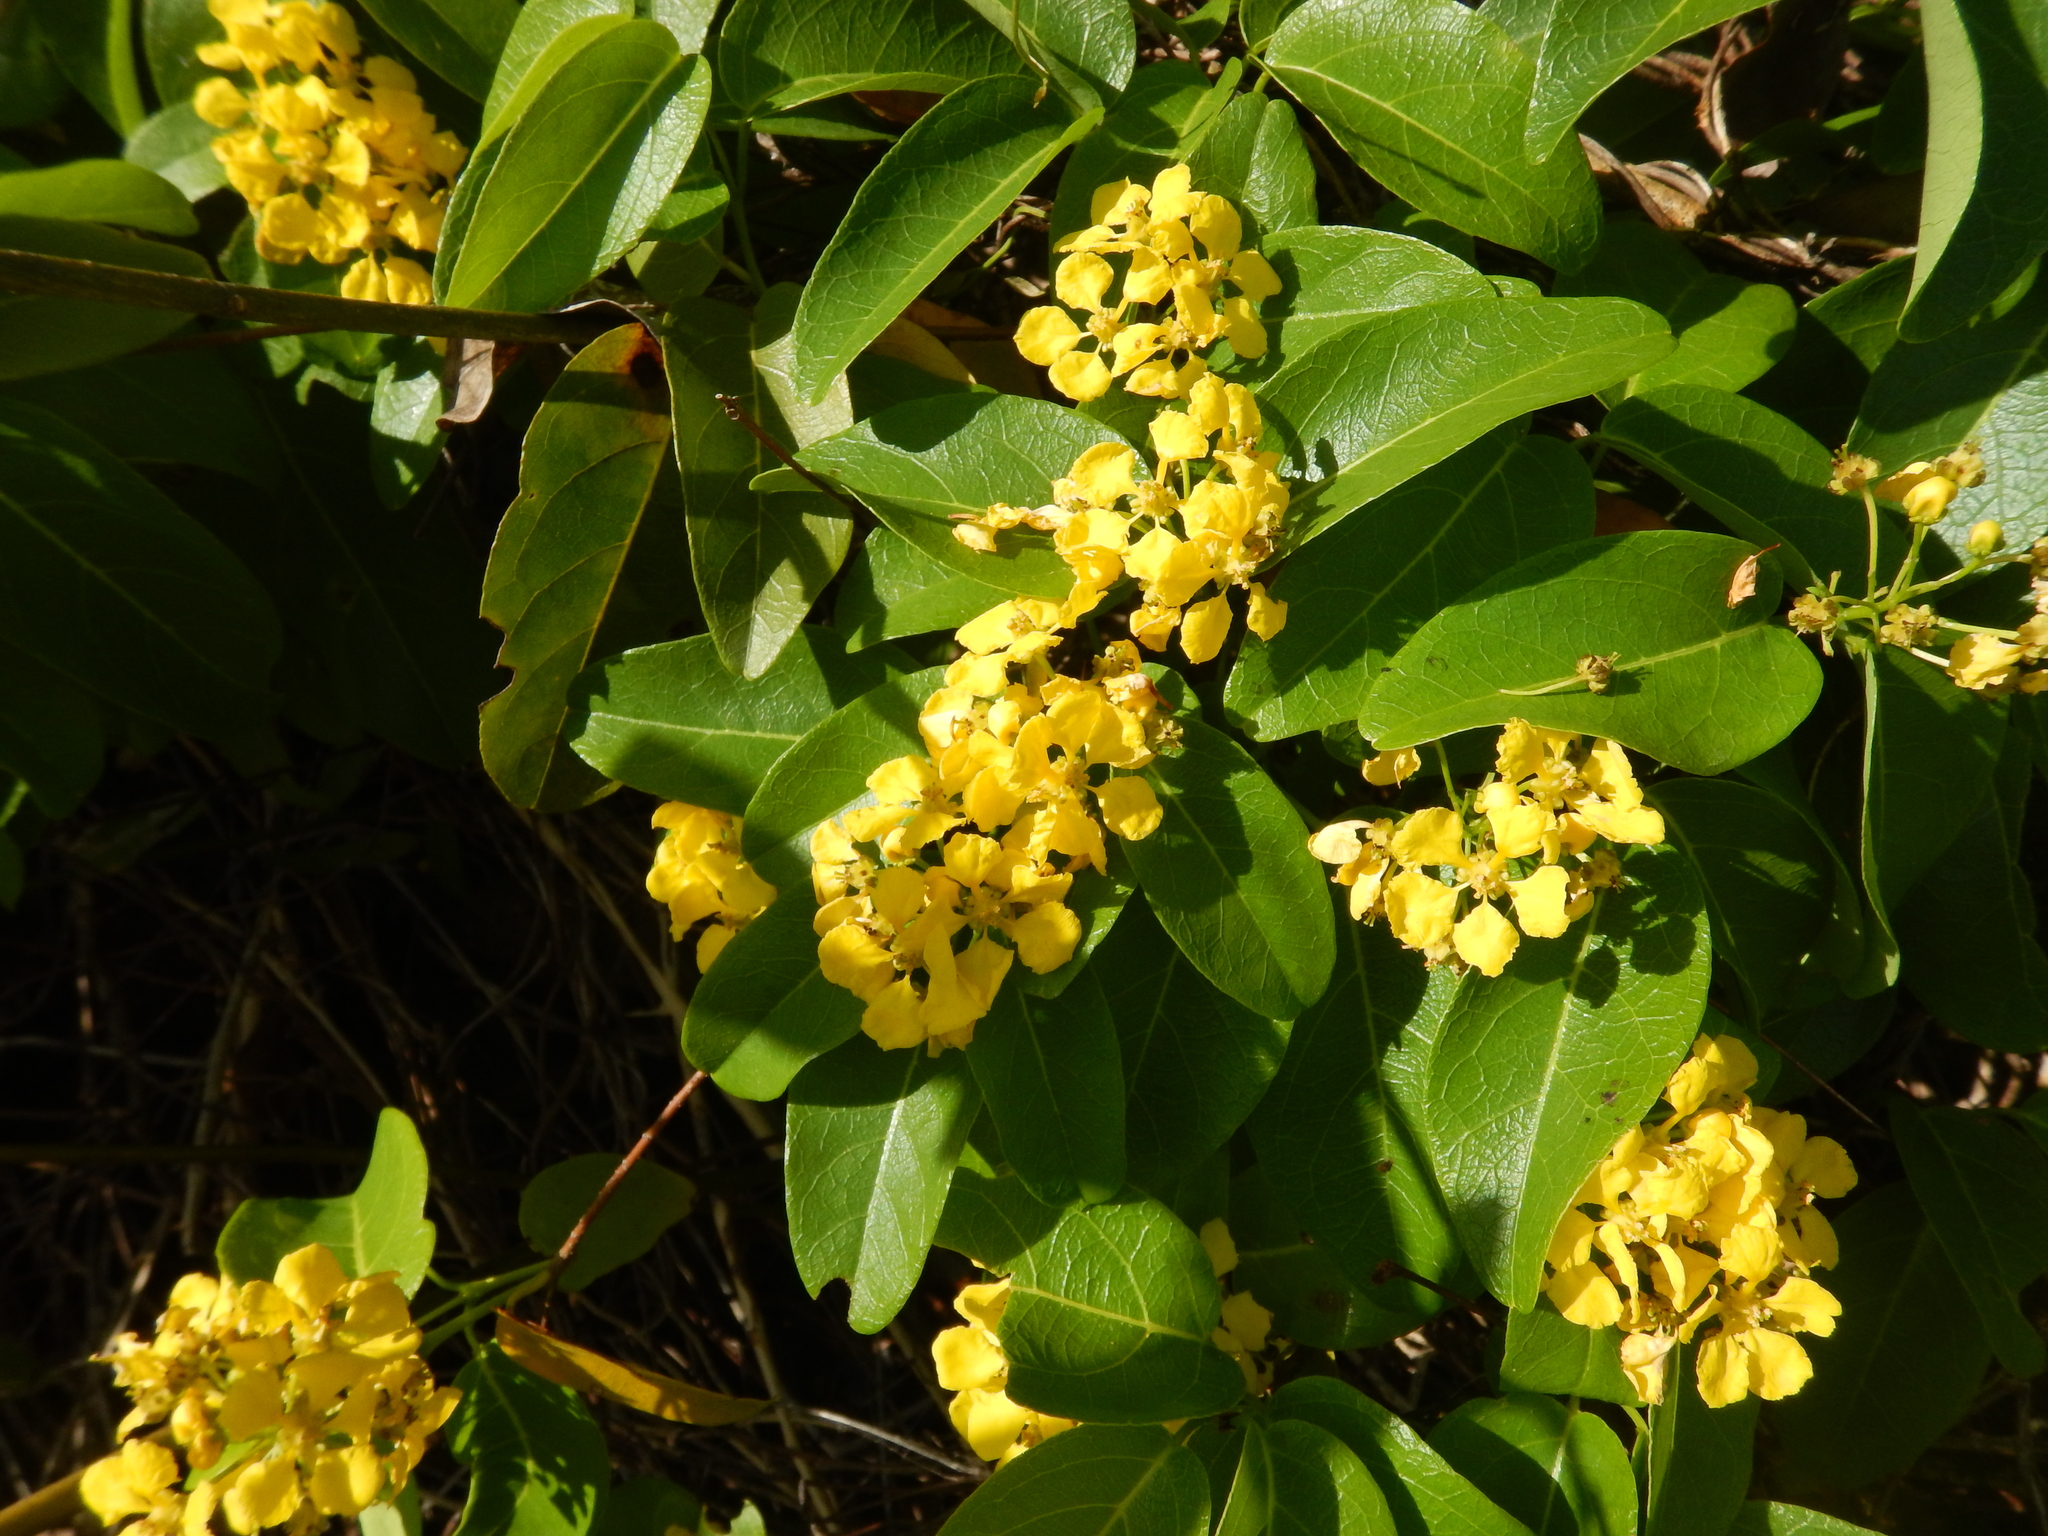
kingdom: Plantae
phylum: Tracheophyta
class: Magnoliopsida
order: Malpighiales
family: Malpighiaceae
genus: Stigmaphyllon
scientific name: Stigmaphyllon emarginatum
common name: Monarch amazonvine
